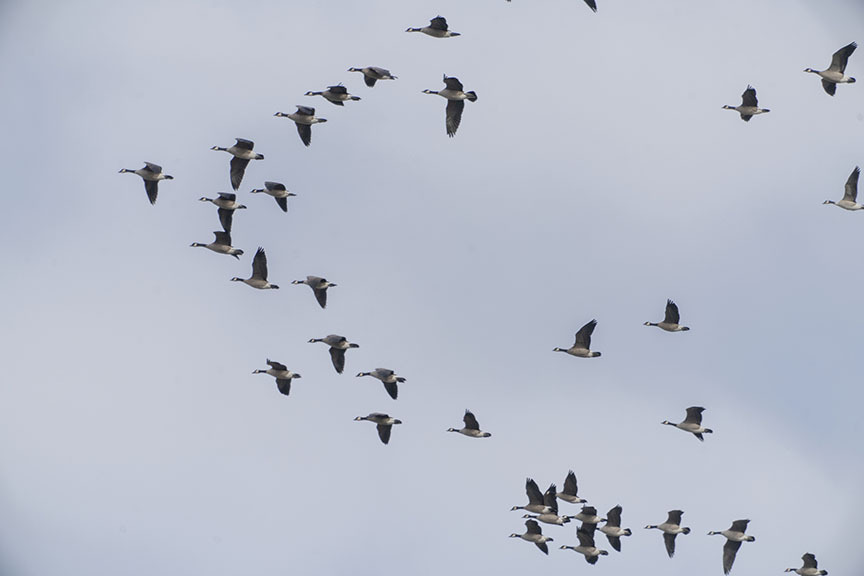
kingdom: Animalia
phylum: Chordata
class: Aves
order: Anseriformes
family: Anatidae
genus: Branta
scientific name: Branta canadensis
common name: Canada goose
